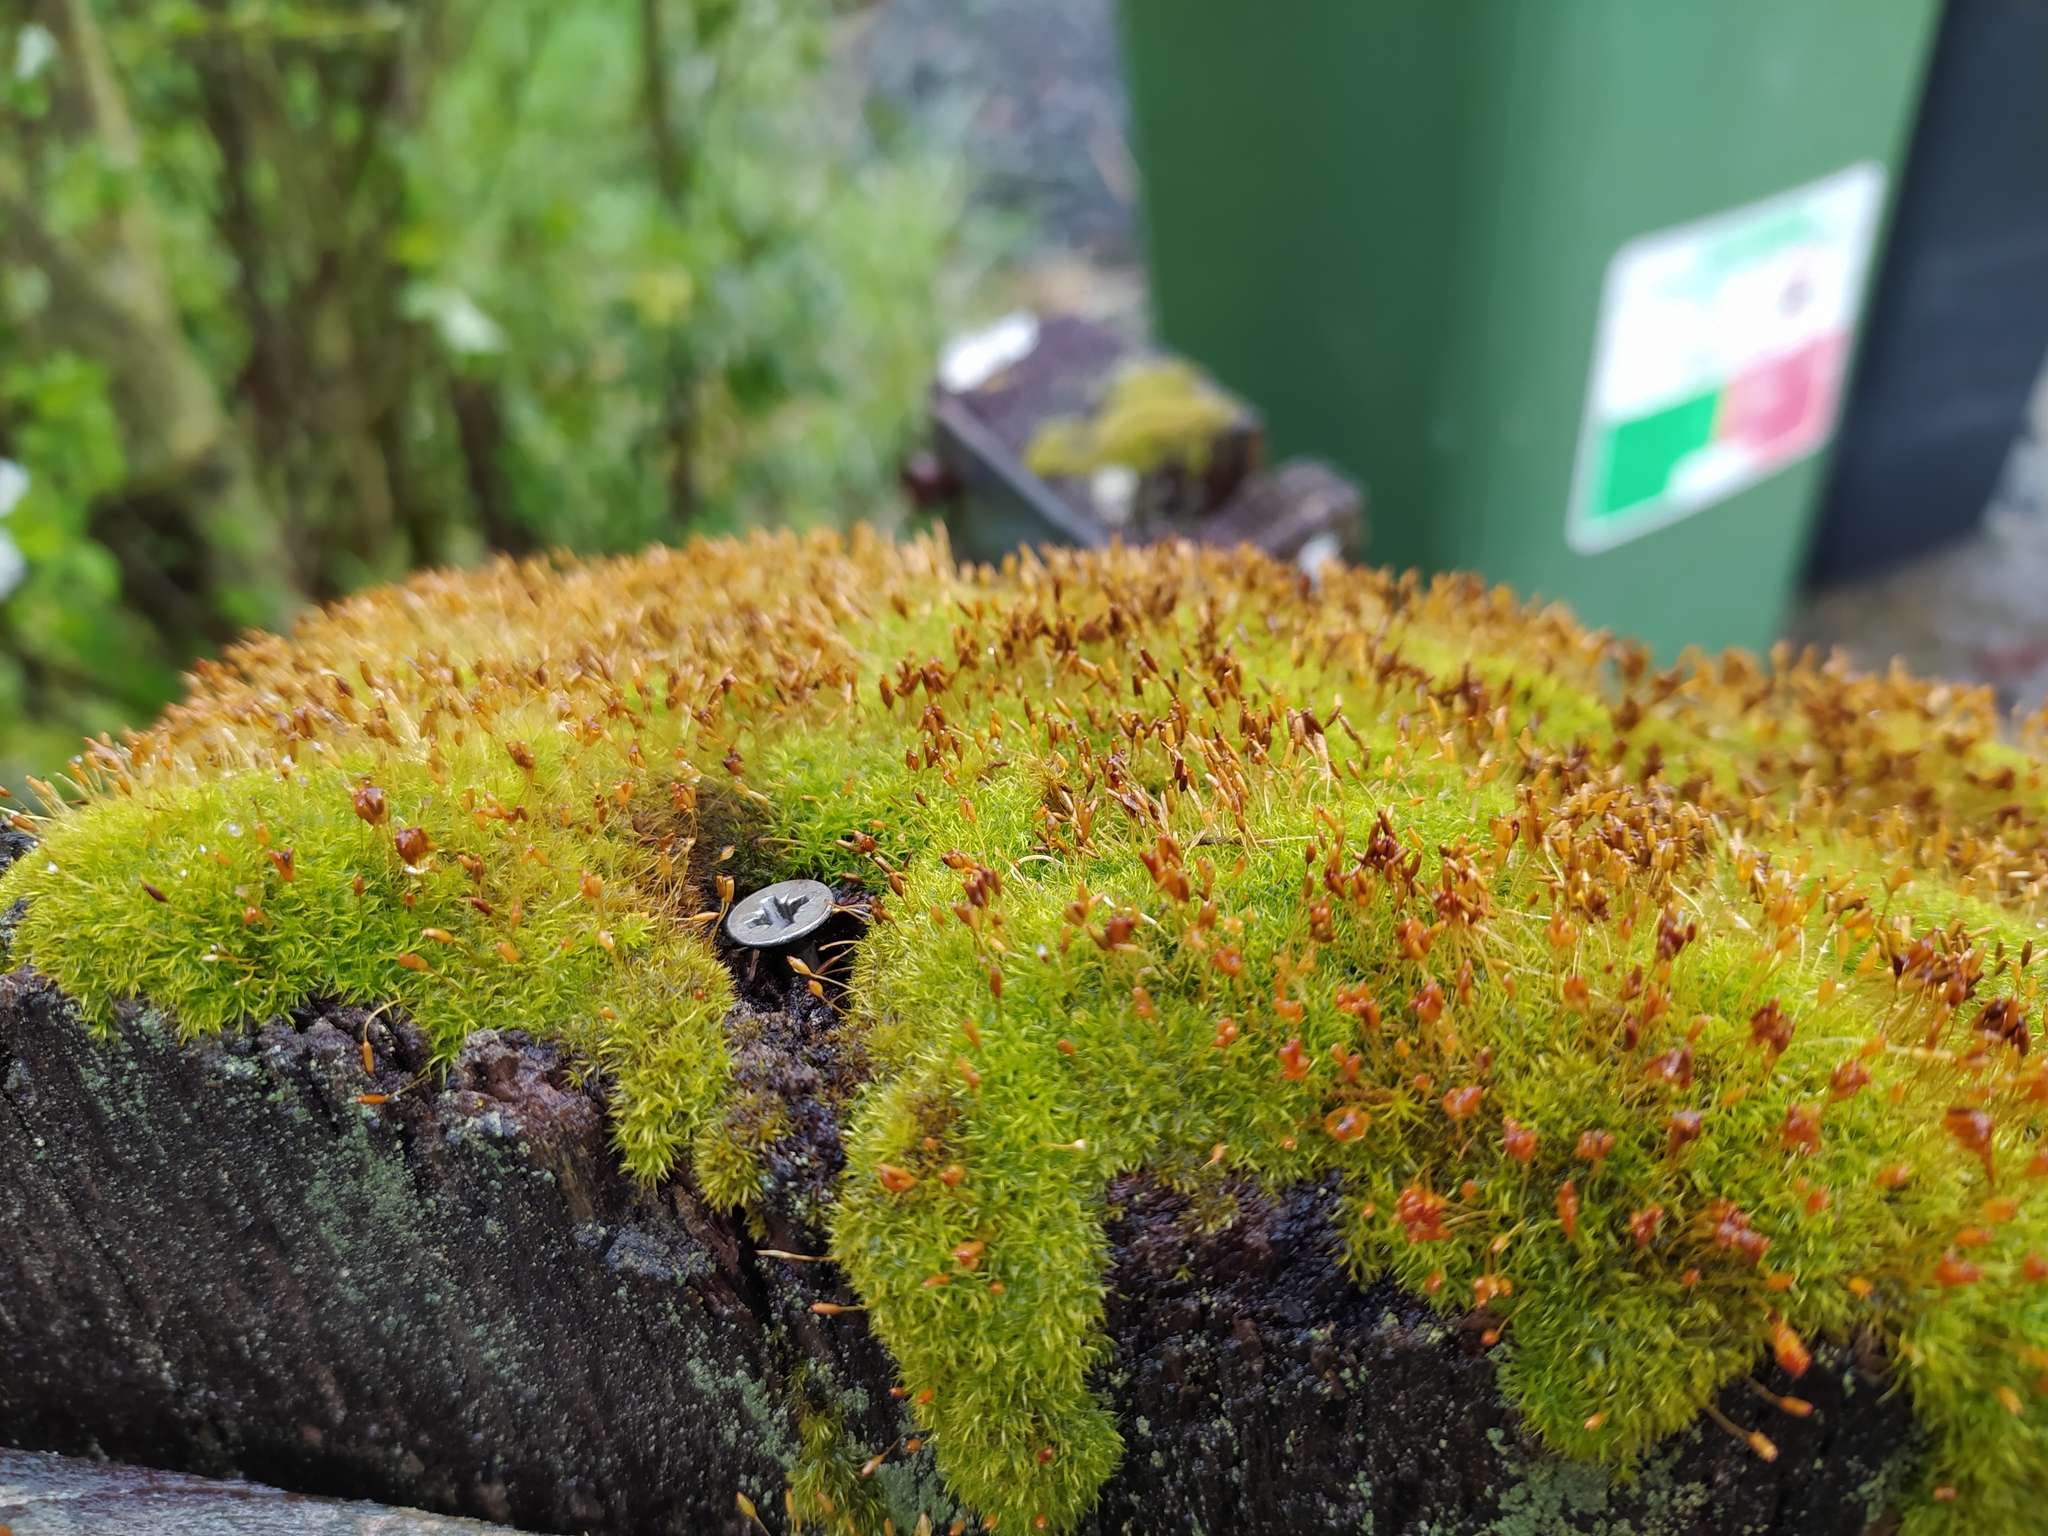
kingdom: Plantae
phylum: Bryophyta
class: Bryopsida
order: Dicranales
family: Rhabdoweisiaceae
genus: Dicranoweisia
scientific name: Dicranoweisia cirrata
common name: Common pincushion
